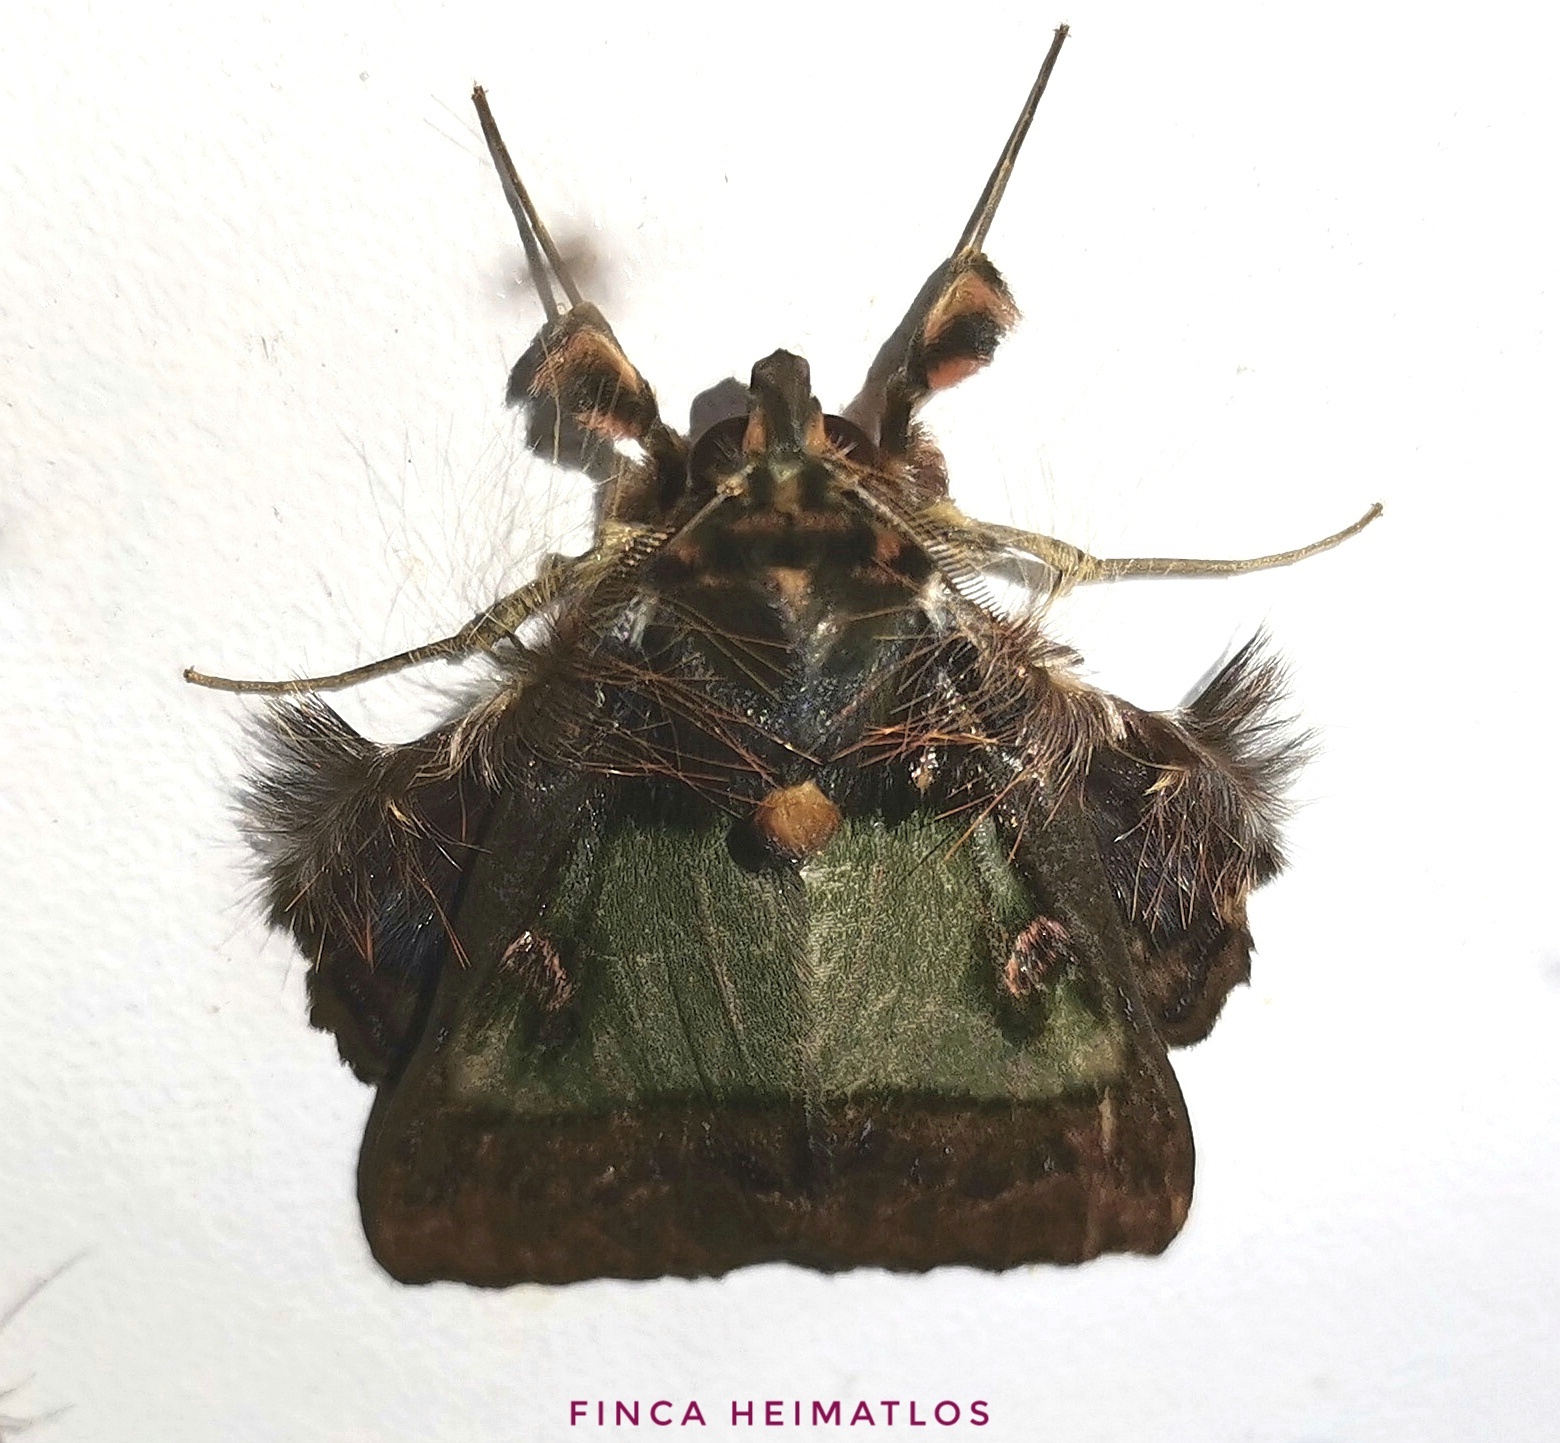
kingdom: Animalia
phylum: Arthropoda
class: Insecta
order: Lepidoptera
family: Erebidae
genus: Ceroctena
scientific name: Ceroctena amynta
